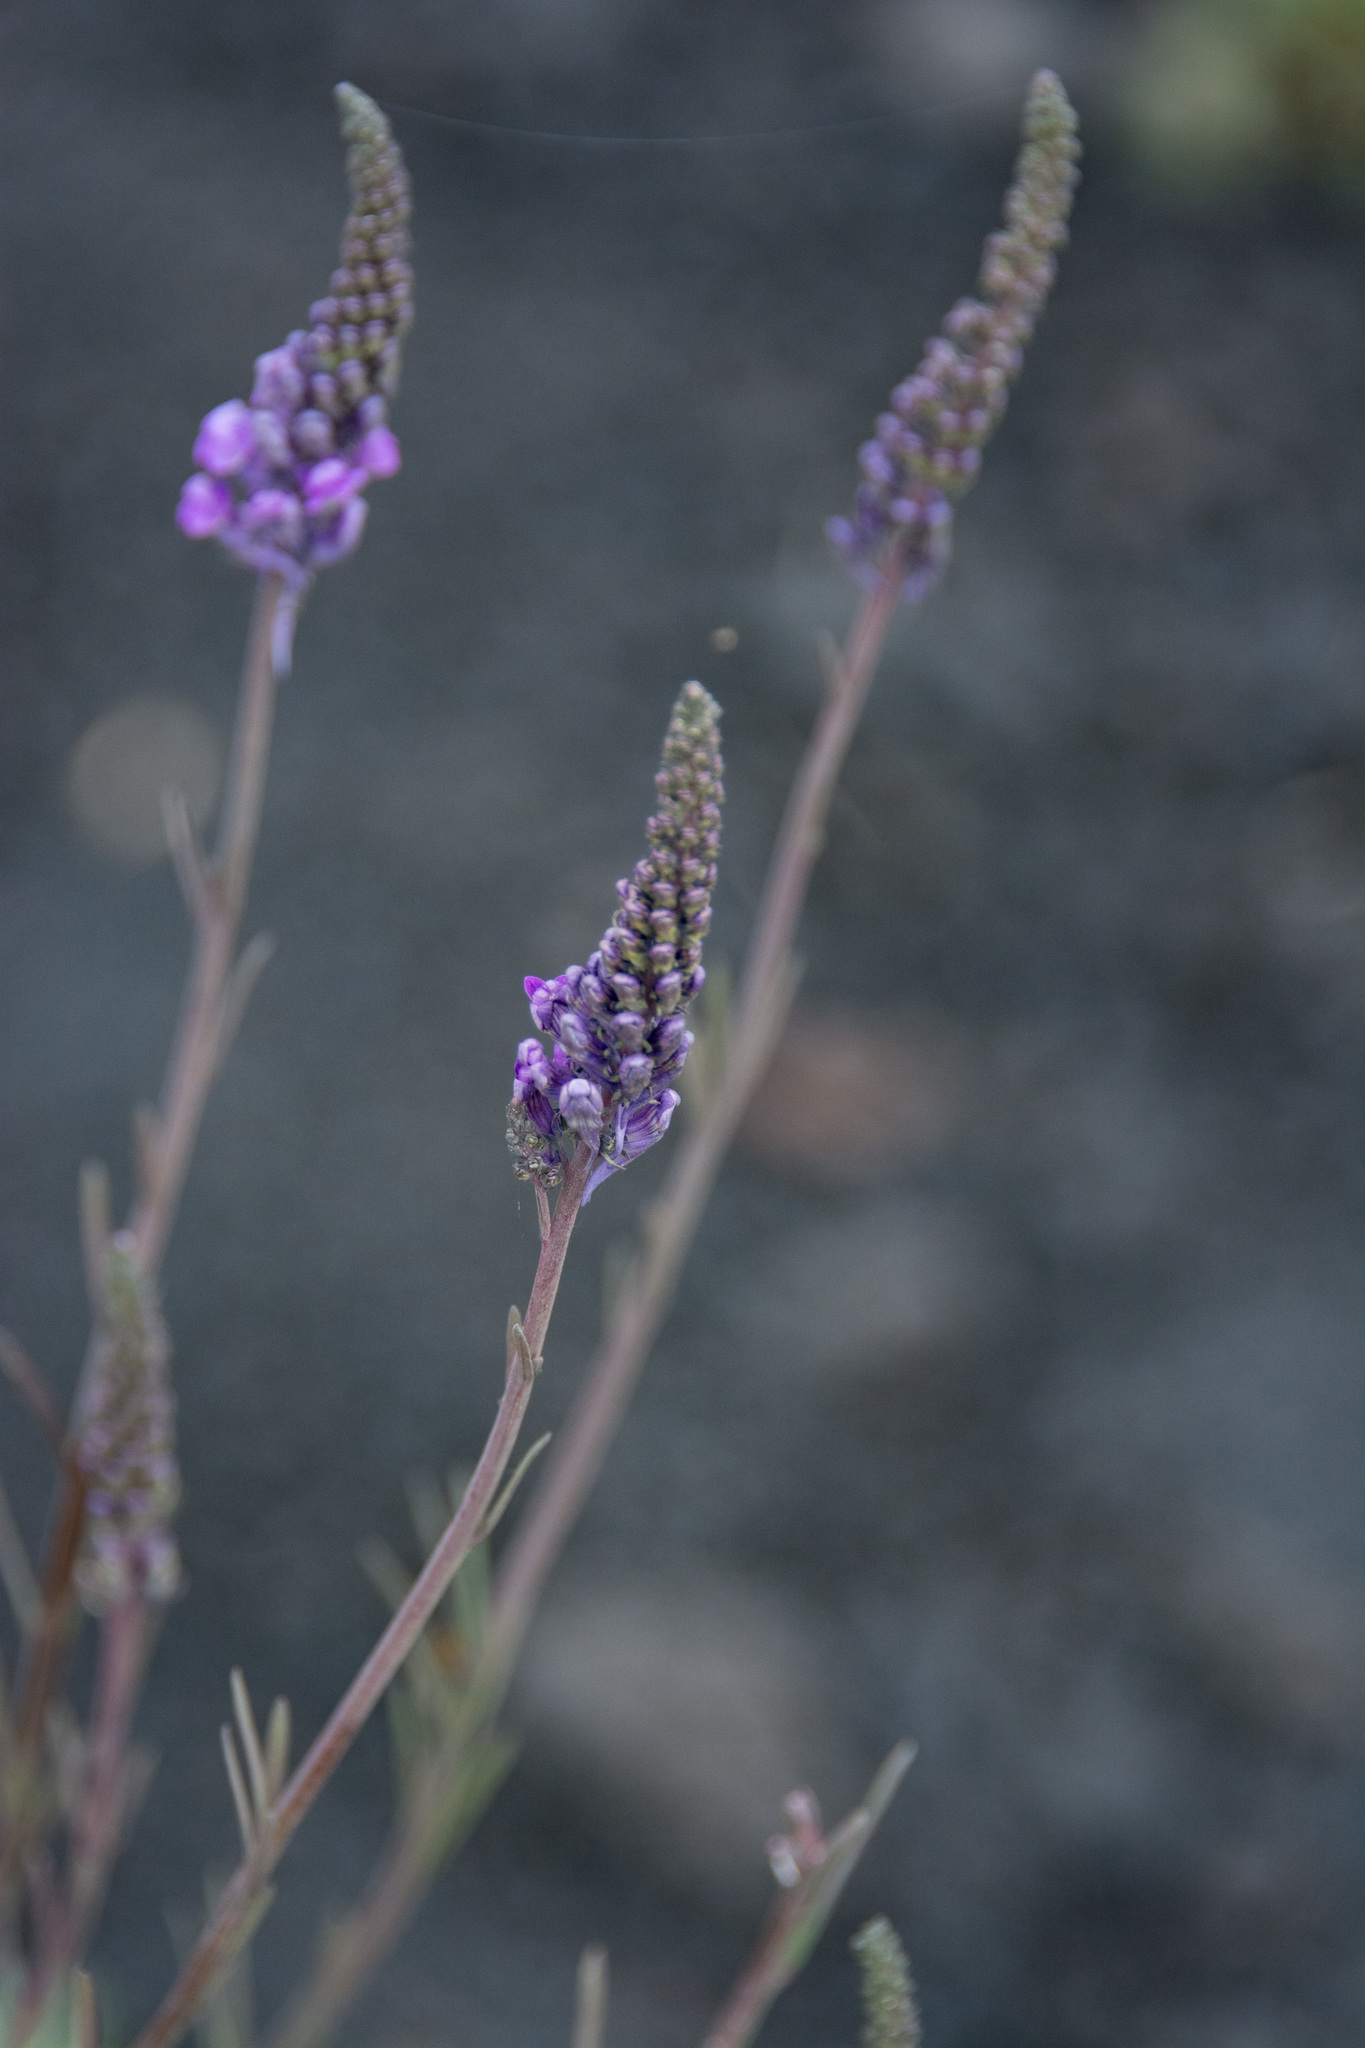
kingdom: Plantae
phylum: Tracheophyta
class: Magnoliopsida
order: Lamiales
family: Plantaginaceae
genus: Linaria
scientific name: Linaria purpurea
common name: Purple toadflax
